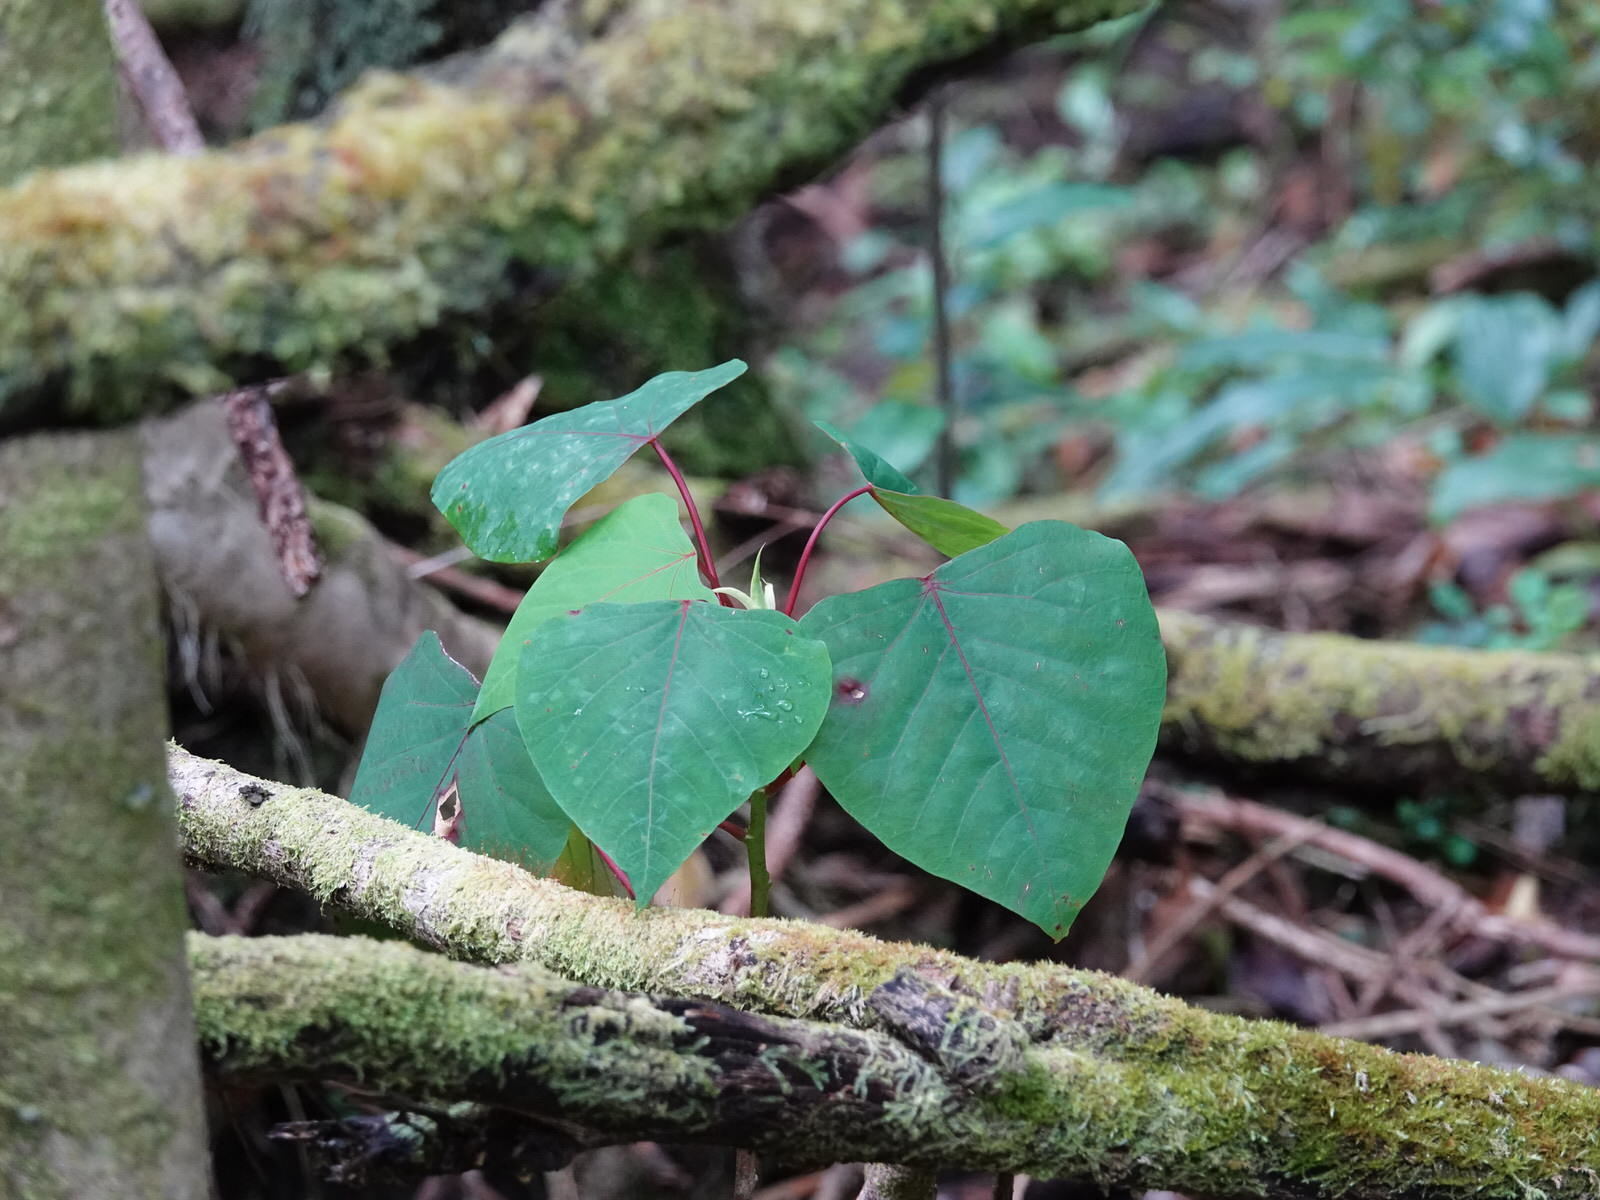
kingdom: Plantae
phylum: Tracheophyta
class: Magnoliopsida
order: Malpighiales
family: Euphorbiaceae
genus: Homalanthus
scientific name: Homalanthus populifolius
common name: Queensland poplar
